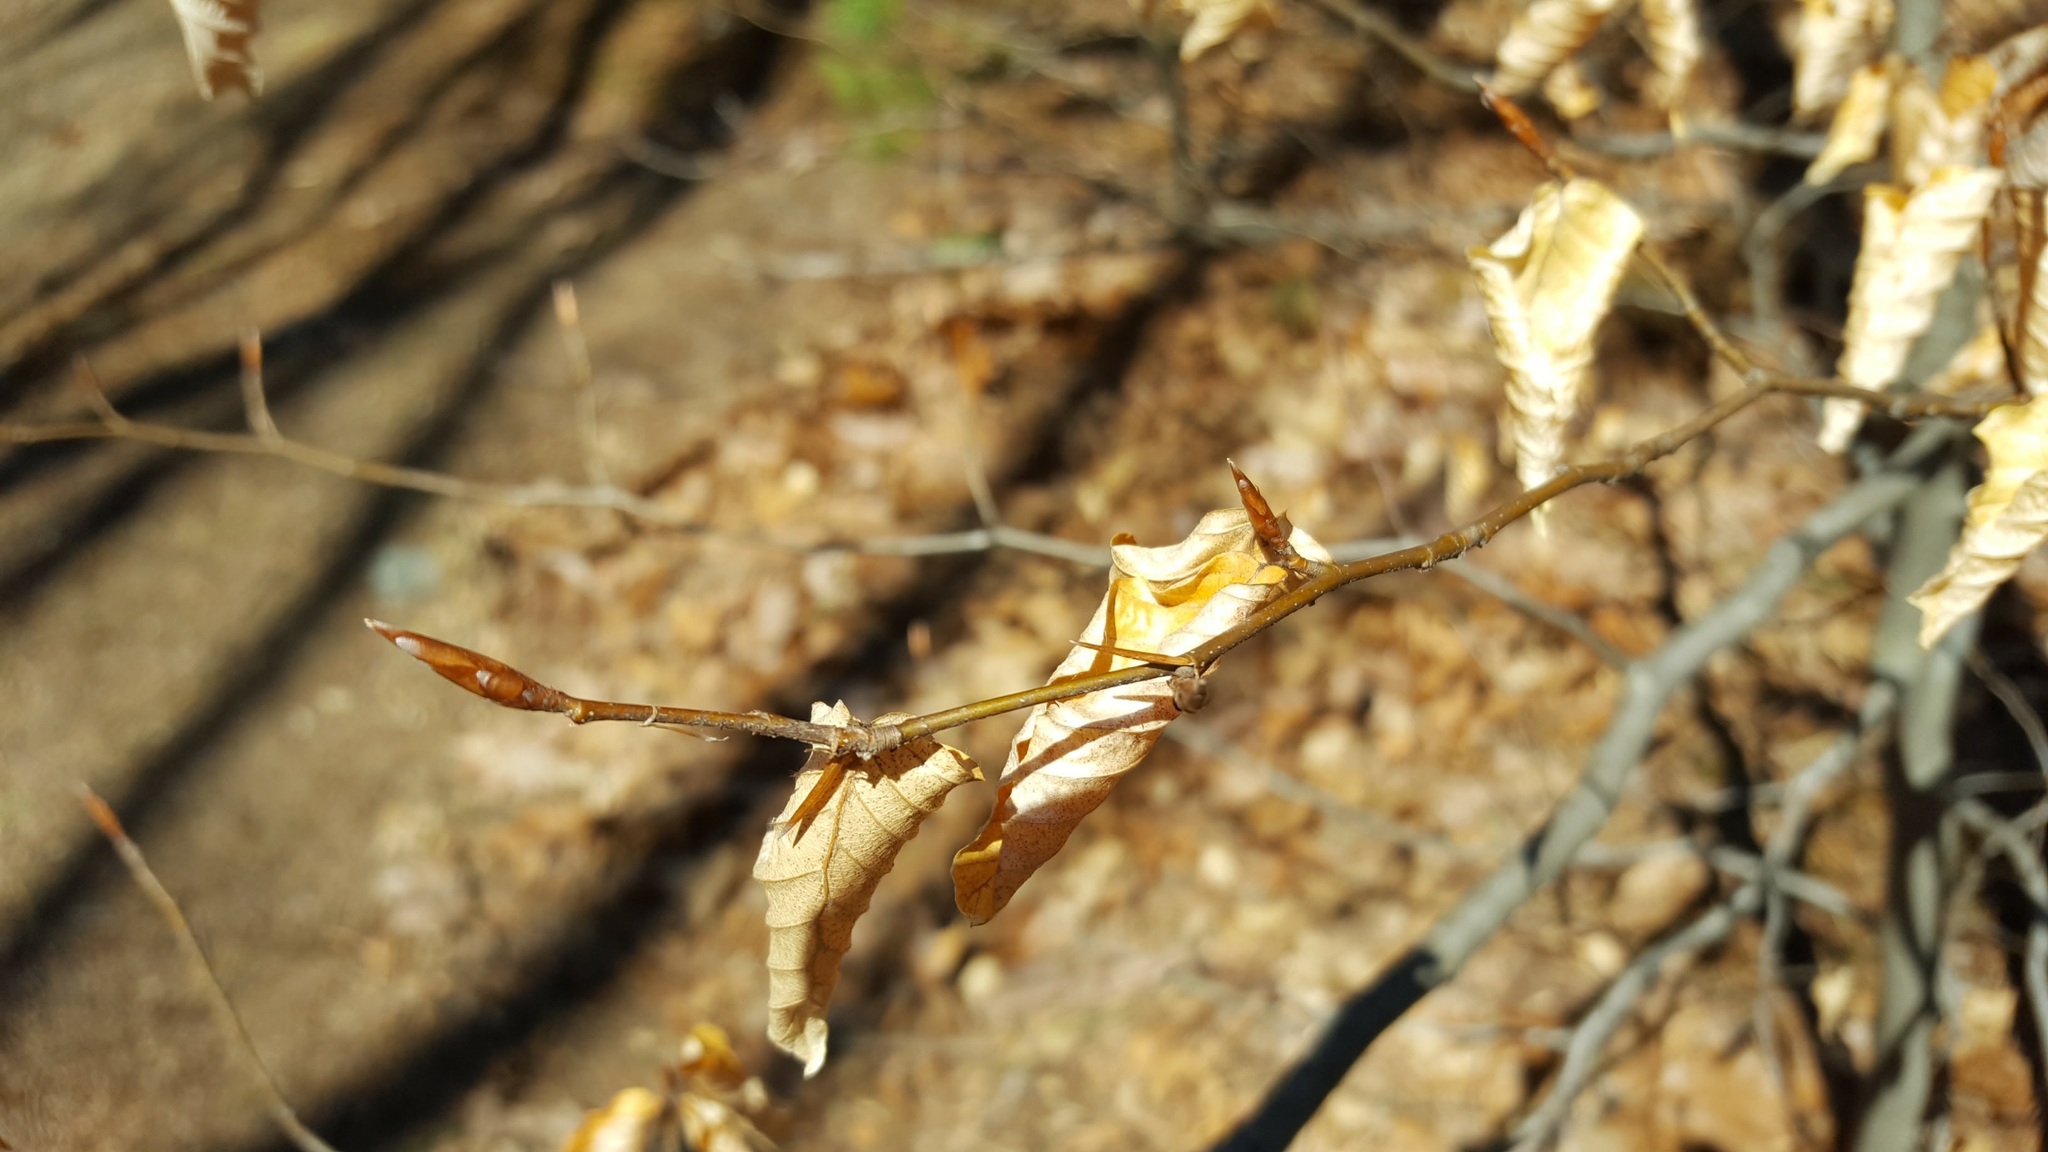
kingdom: Plantae
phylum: Tracheophyta
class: Magnoliopsida
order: Fagales
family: Fagaceae
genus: Fagus
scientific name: Fagus grandifolia
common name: American beech
